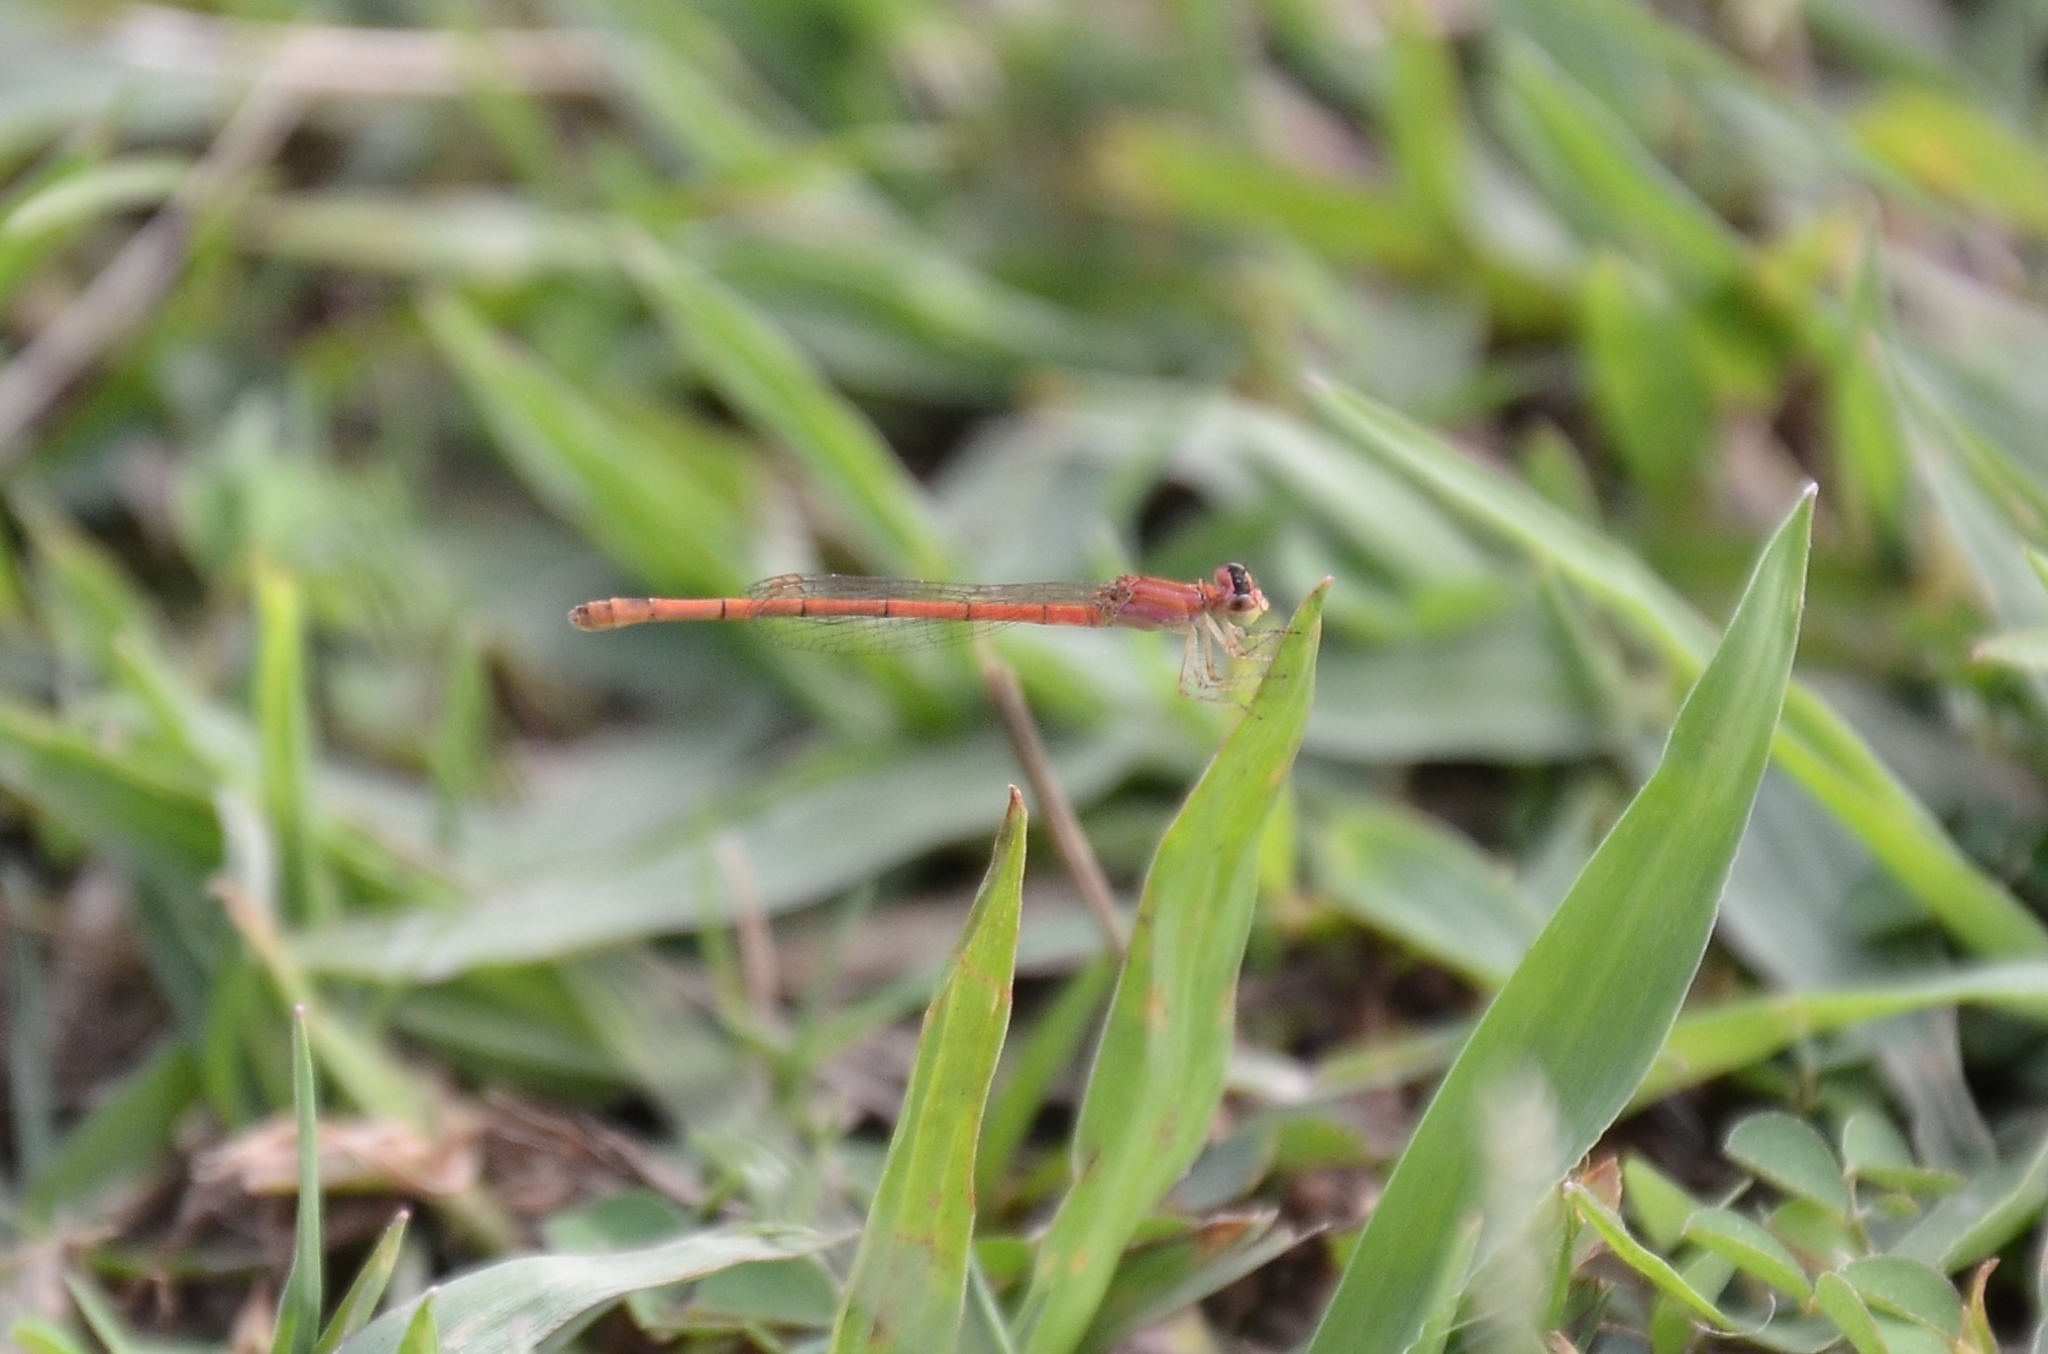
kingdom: Animalia
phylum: Arthropoda
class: Insecta
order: Odonata
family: Coenagrionidae
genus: Agriocnemis
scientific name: Agriocnemis keralensis
